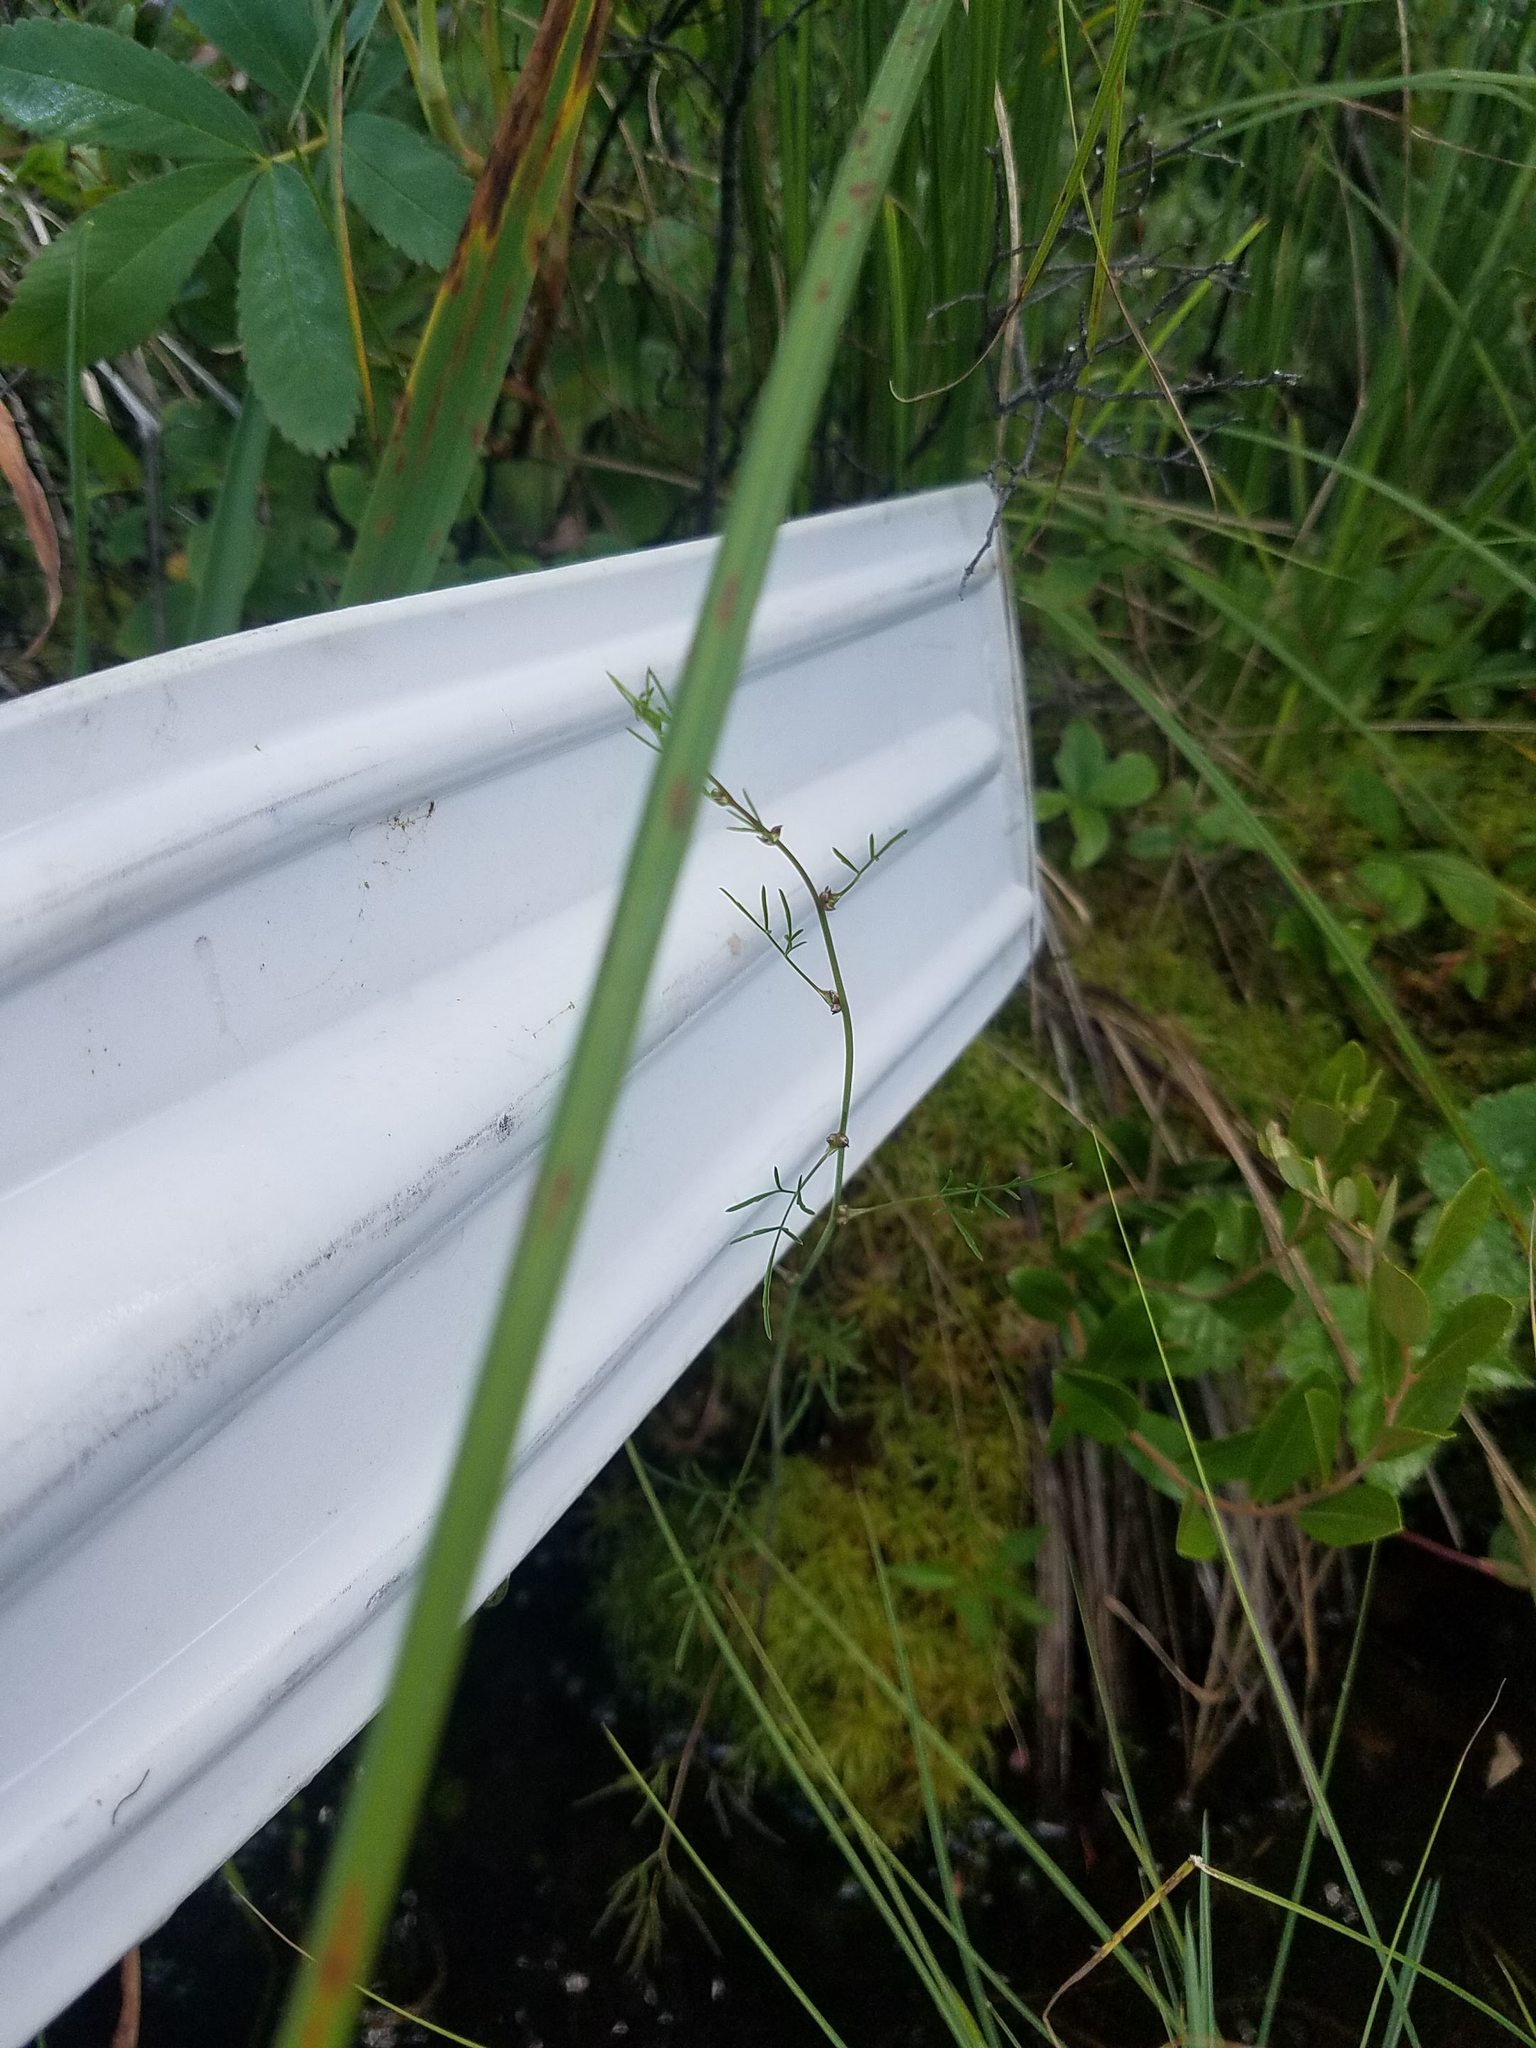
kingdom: Plantae
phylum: Tracheophyta
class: Magnoliopsida
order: Apiales
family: Apiaceae
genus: Cicuta
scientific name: Cicuta bulbifera
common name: Bulb-bearing water-hemlock
